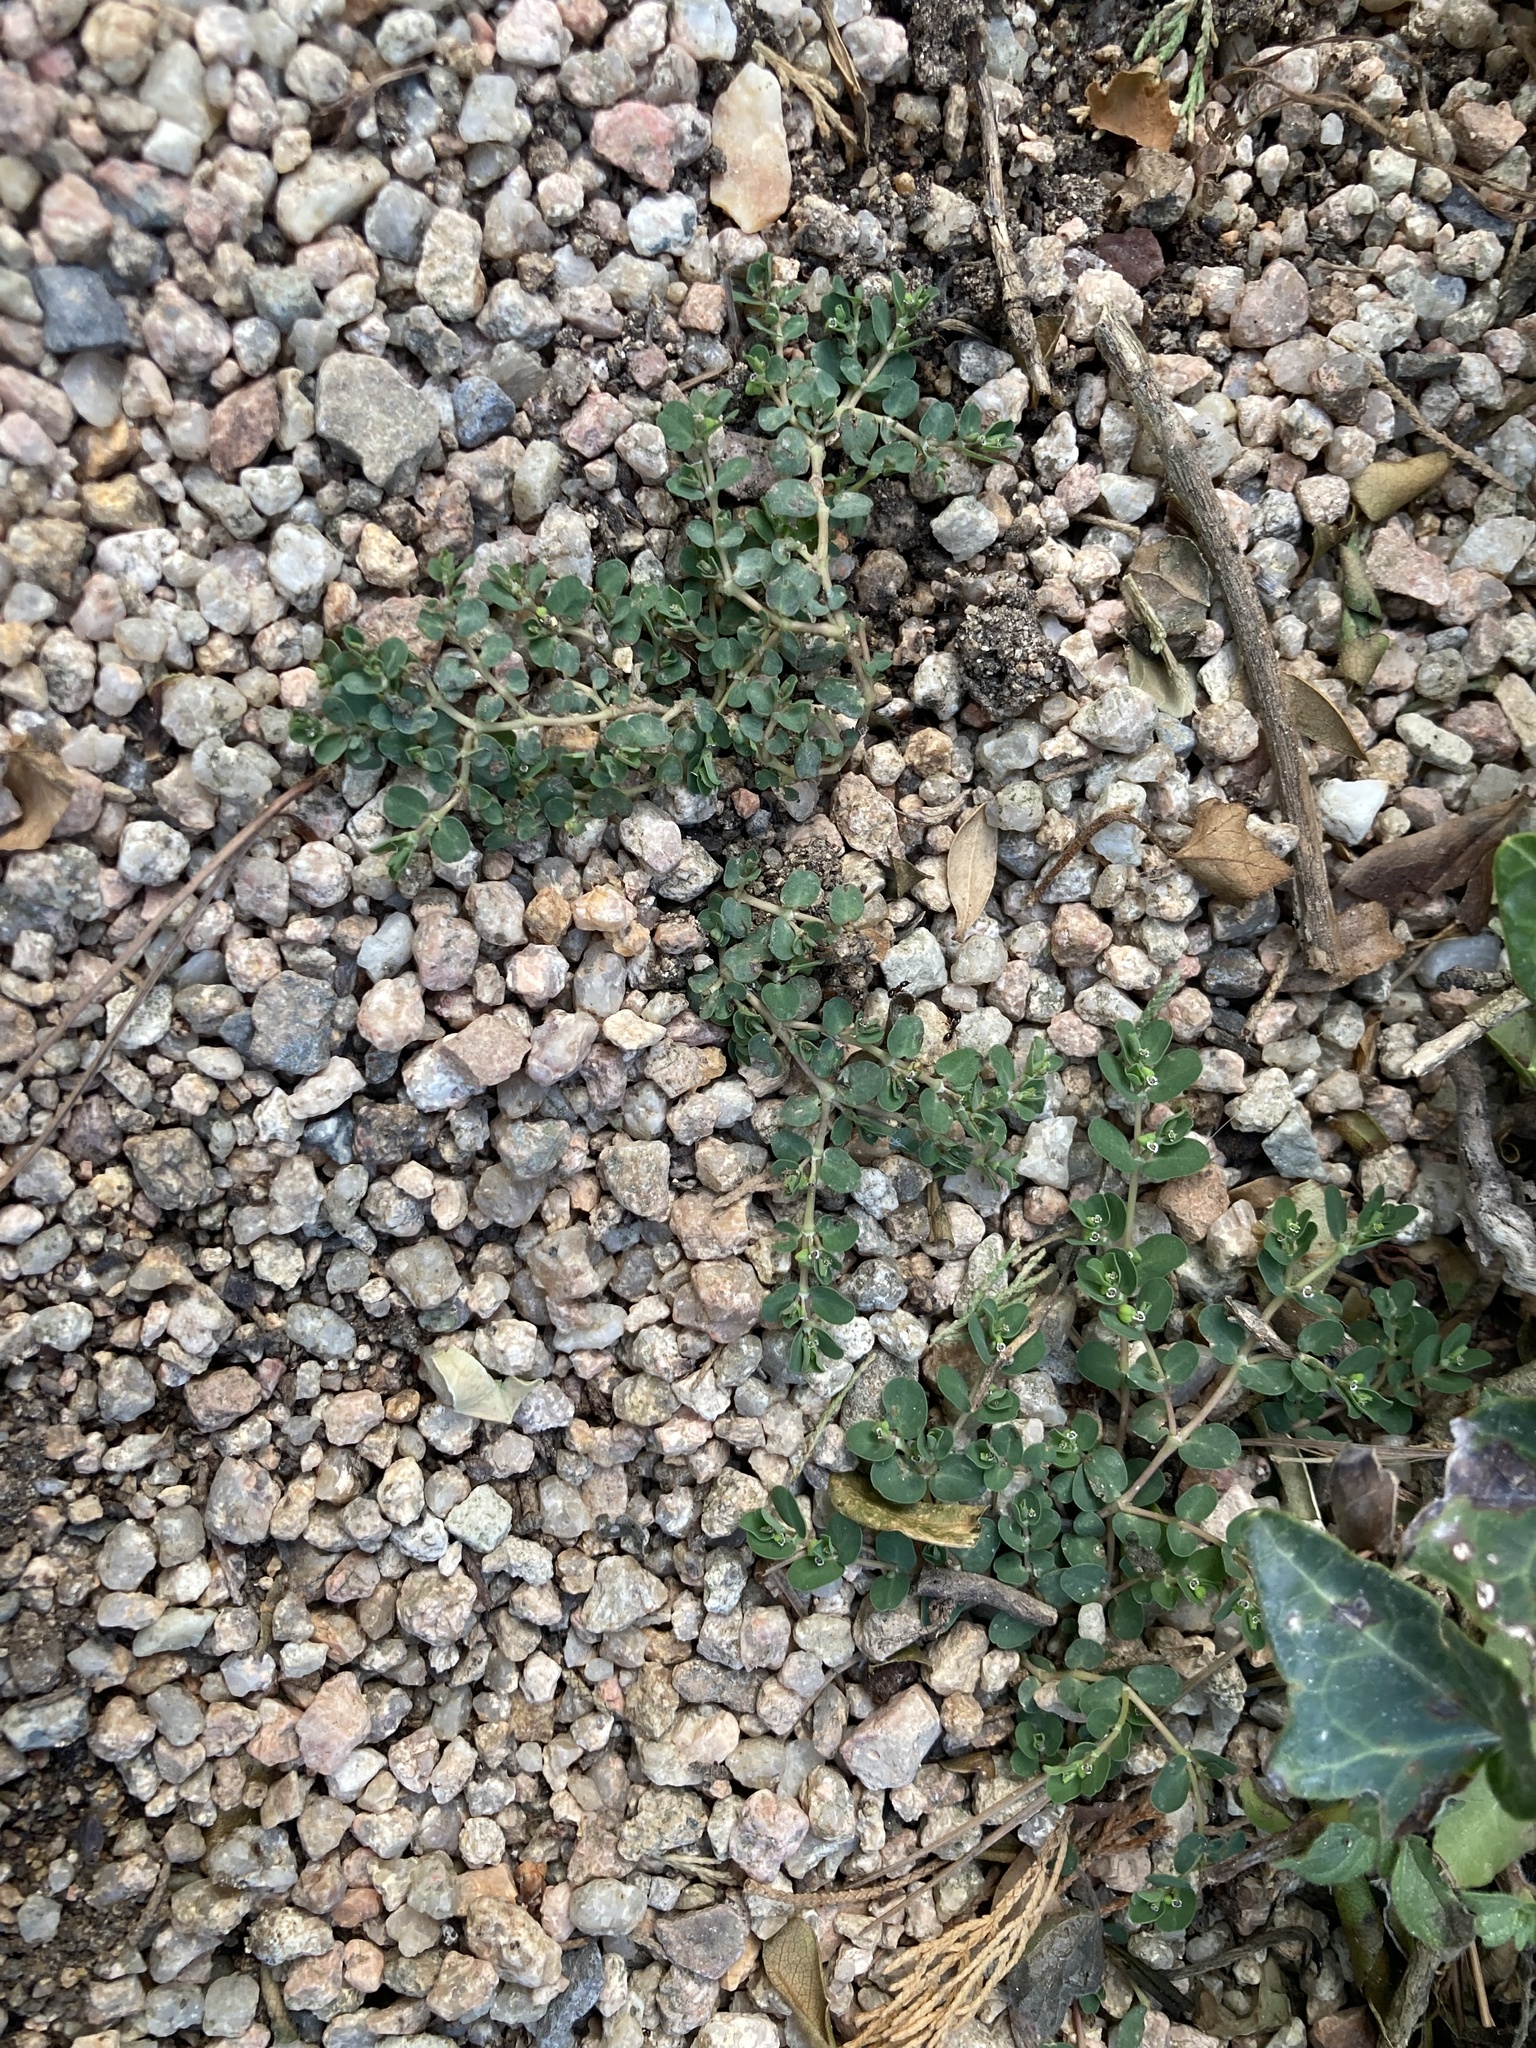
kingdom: Plantae
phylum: Tracheophyta
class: Magnoliopsida
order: Malpighiales
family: Euphorbiaceae
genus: Euphorbia
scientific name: Euphorbia serpens
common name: Matted sandmat
